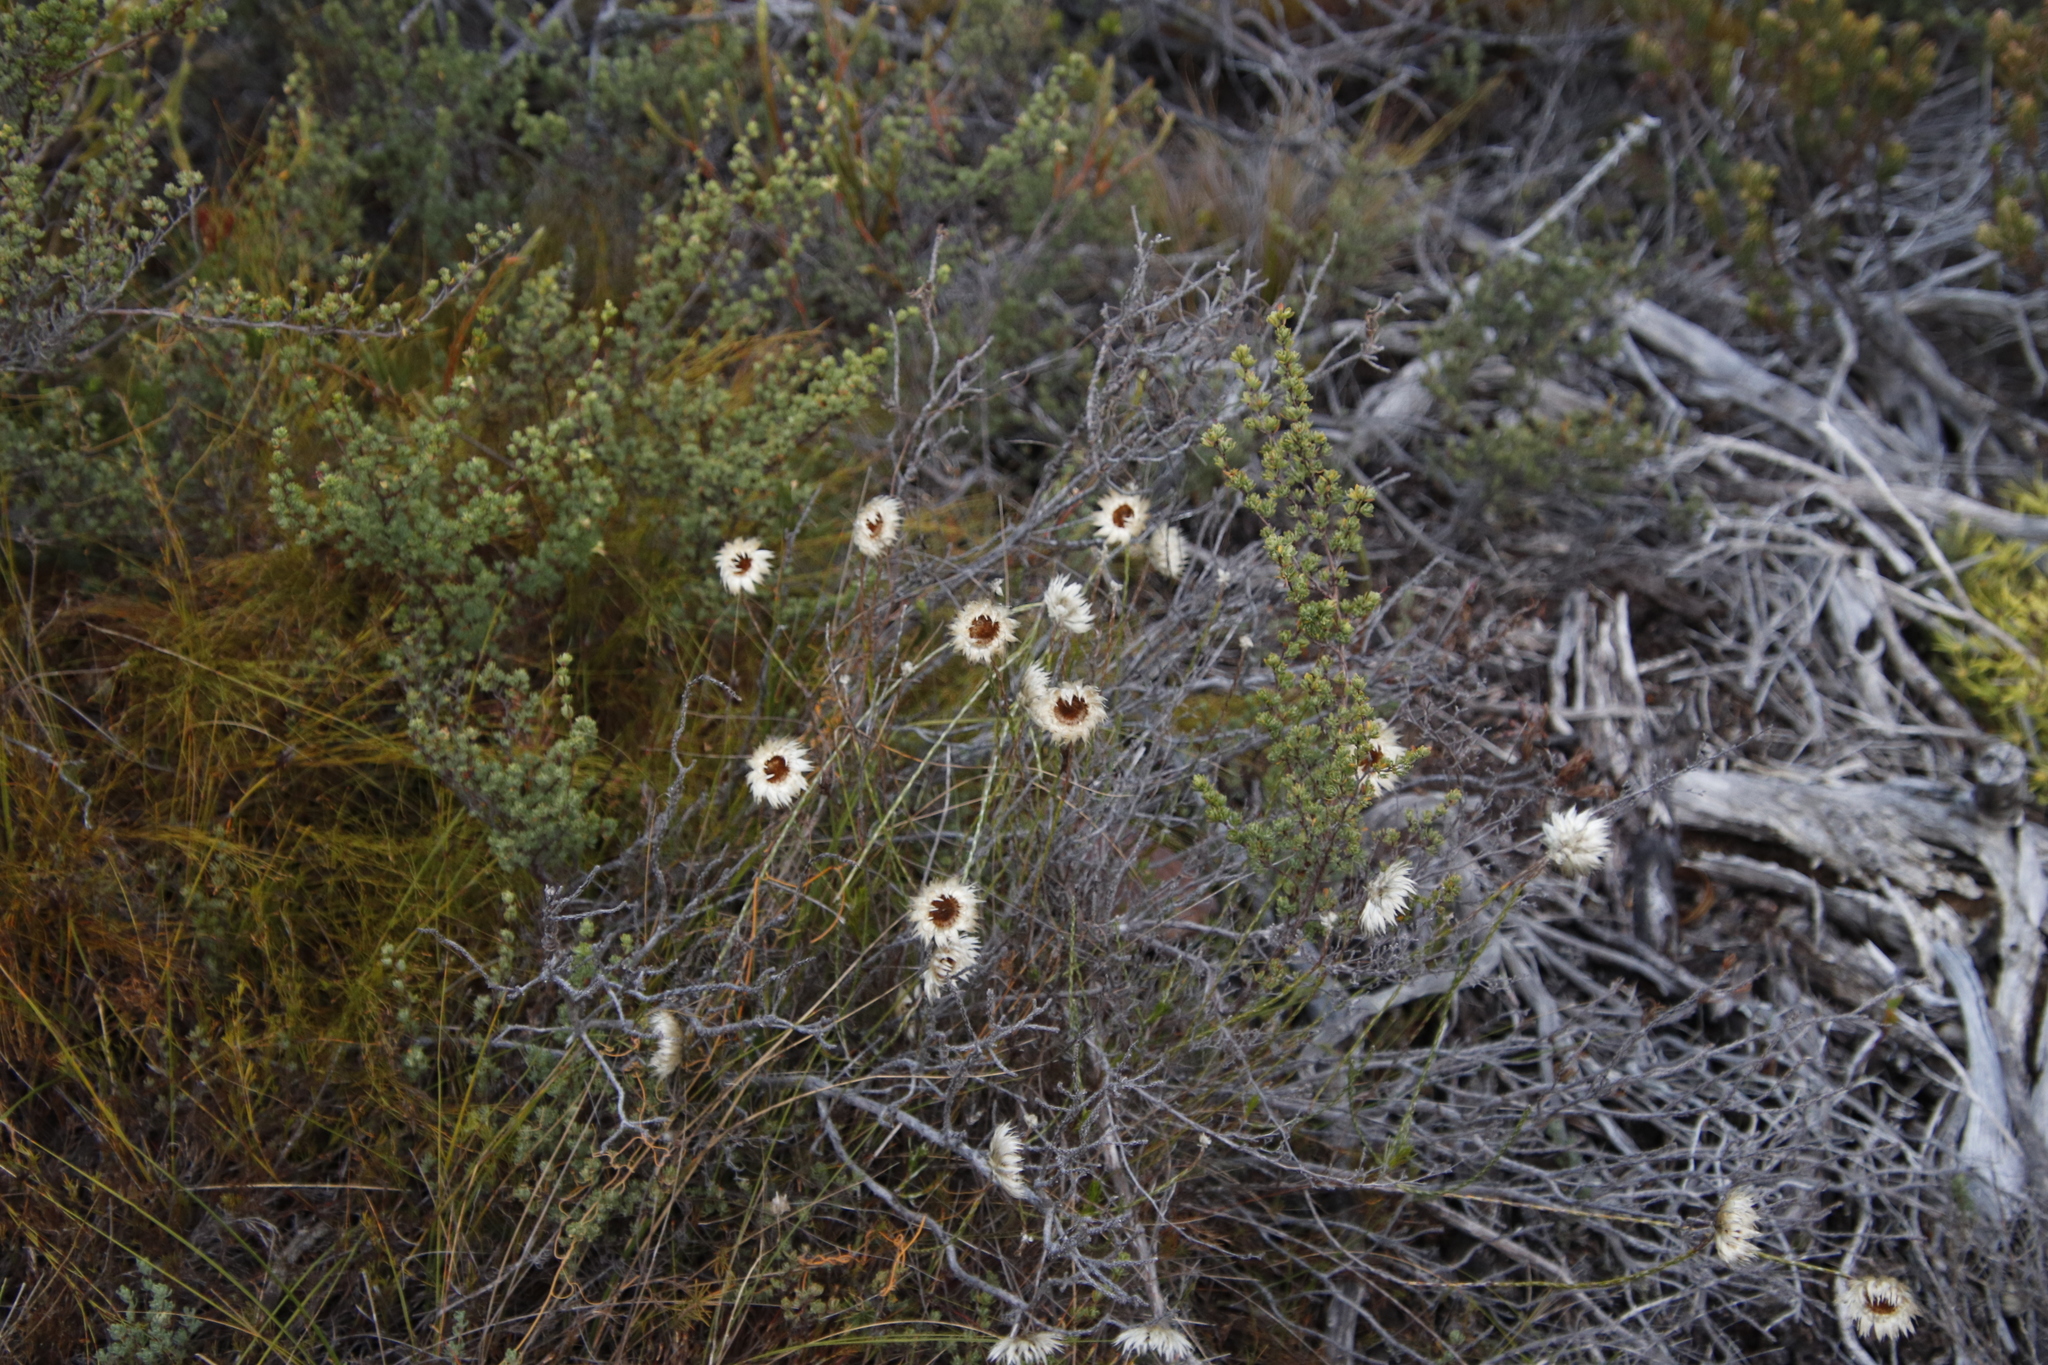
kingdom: Plantae
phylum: Tracheophyta
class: Magnoliopsida
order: Asterales
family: Asteraceae
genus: Edmondia
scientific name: Edmondia sesamoides
